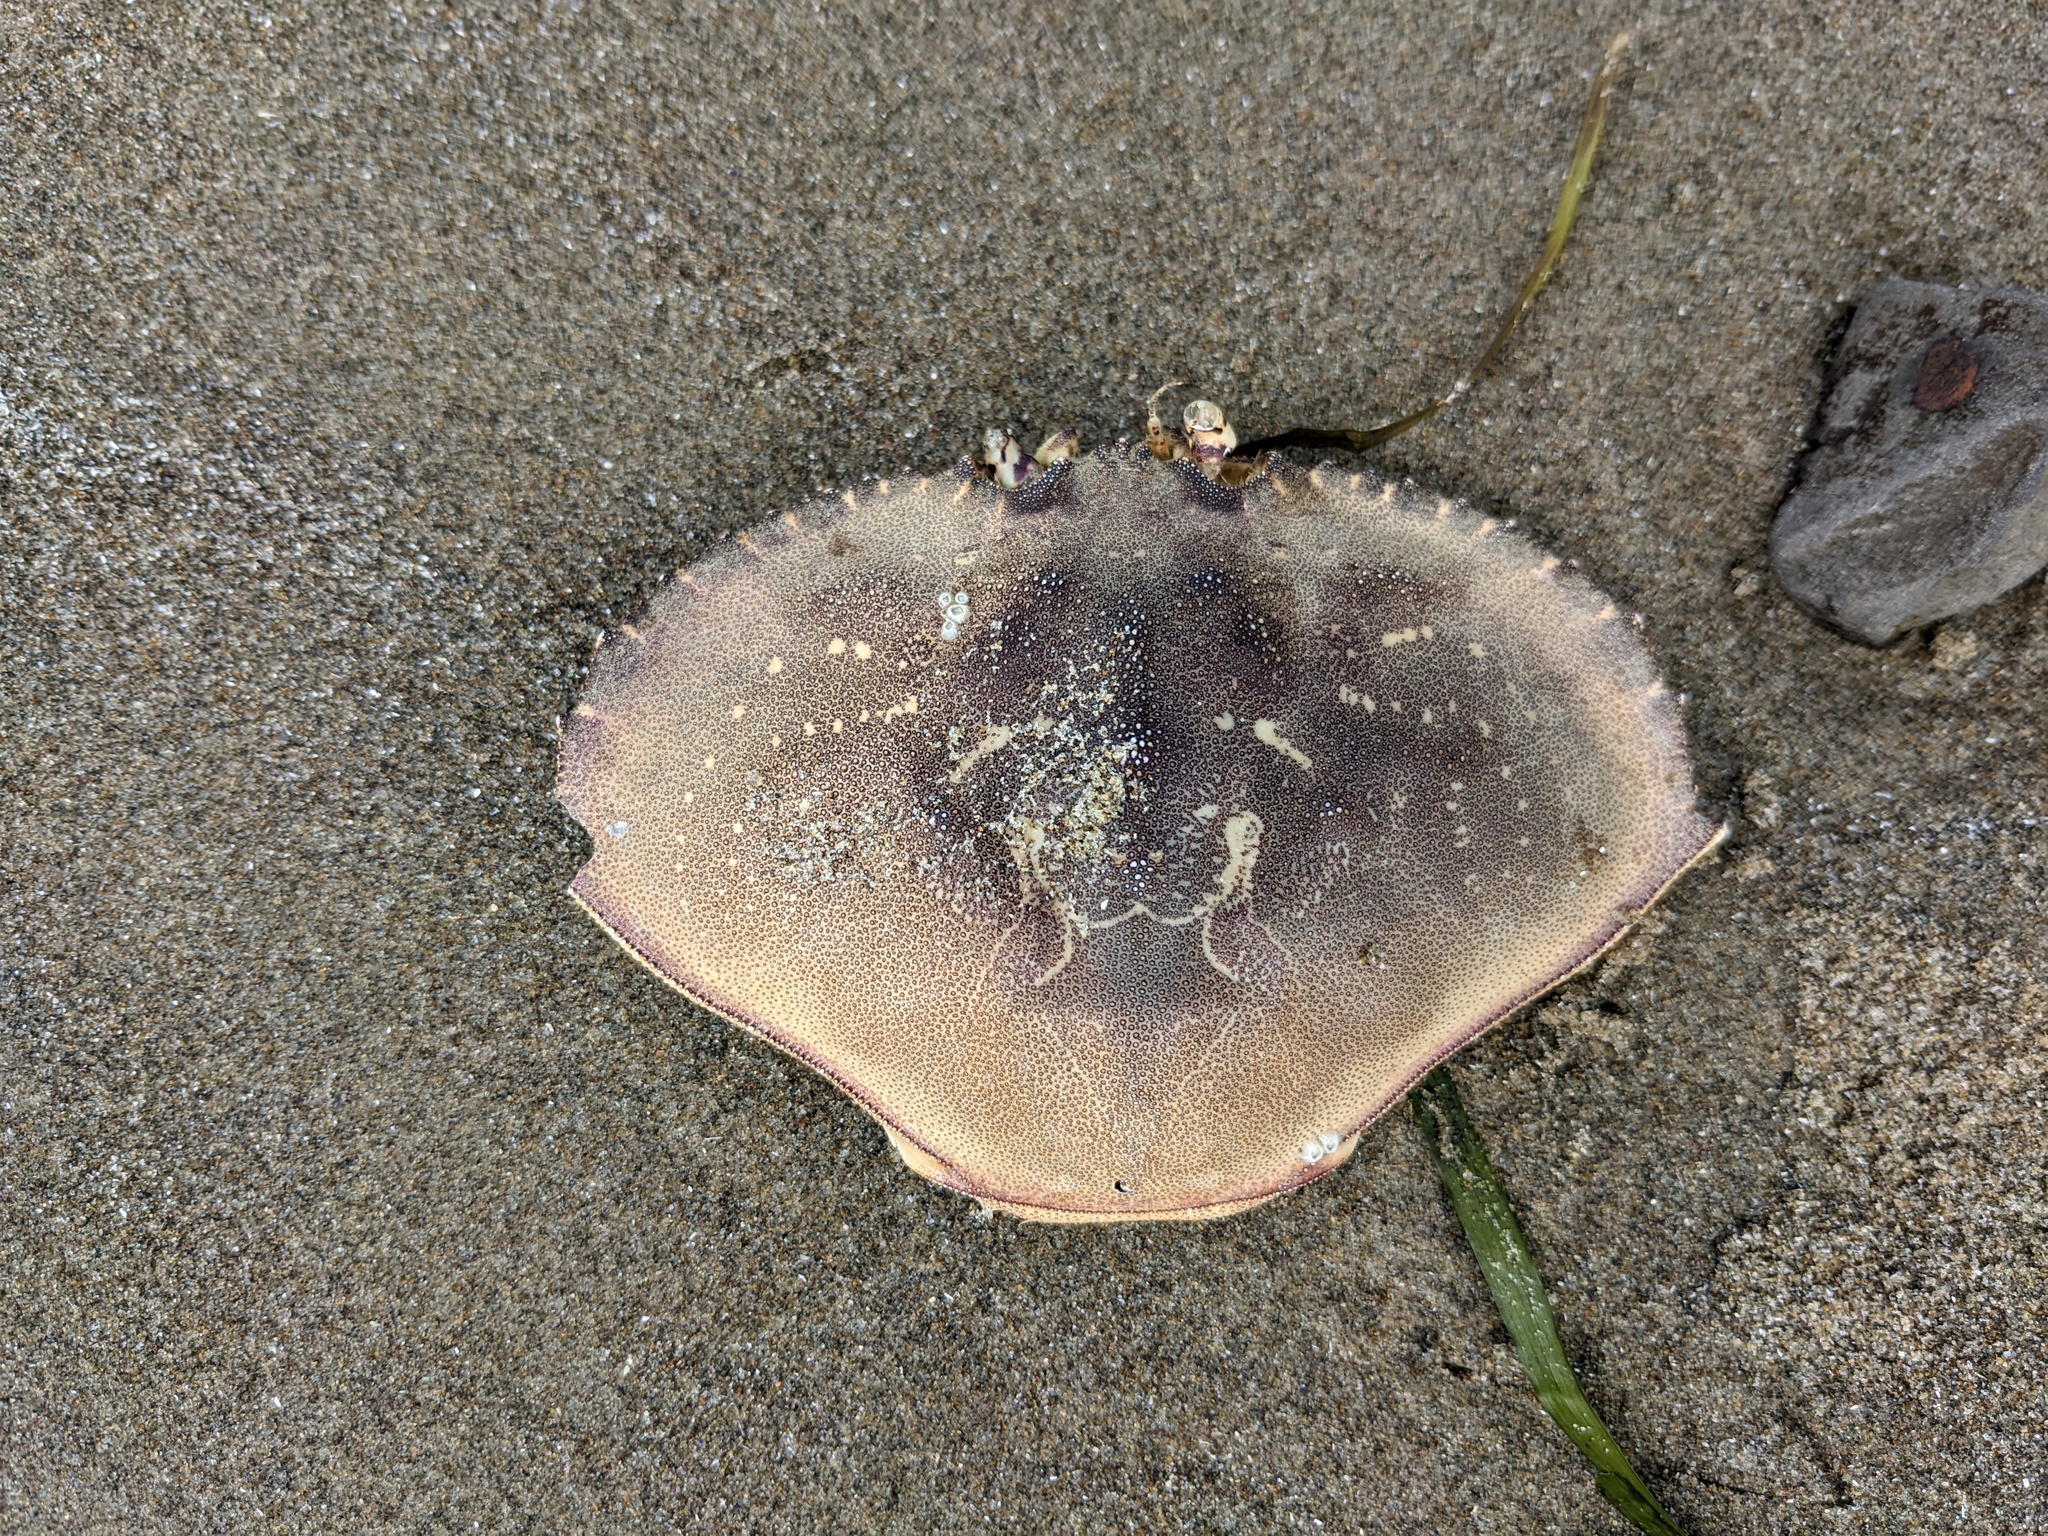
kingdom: Animalia
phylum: Arthropoda
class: Malacostraca
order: Decapoda
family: Cancridae
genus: Metacarcinus
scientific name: Metacarcinus magister
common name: Californian crab
